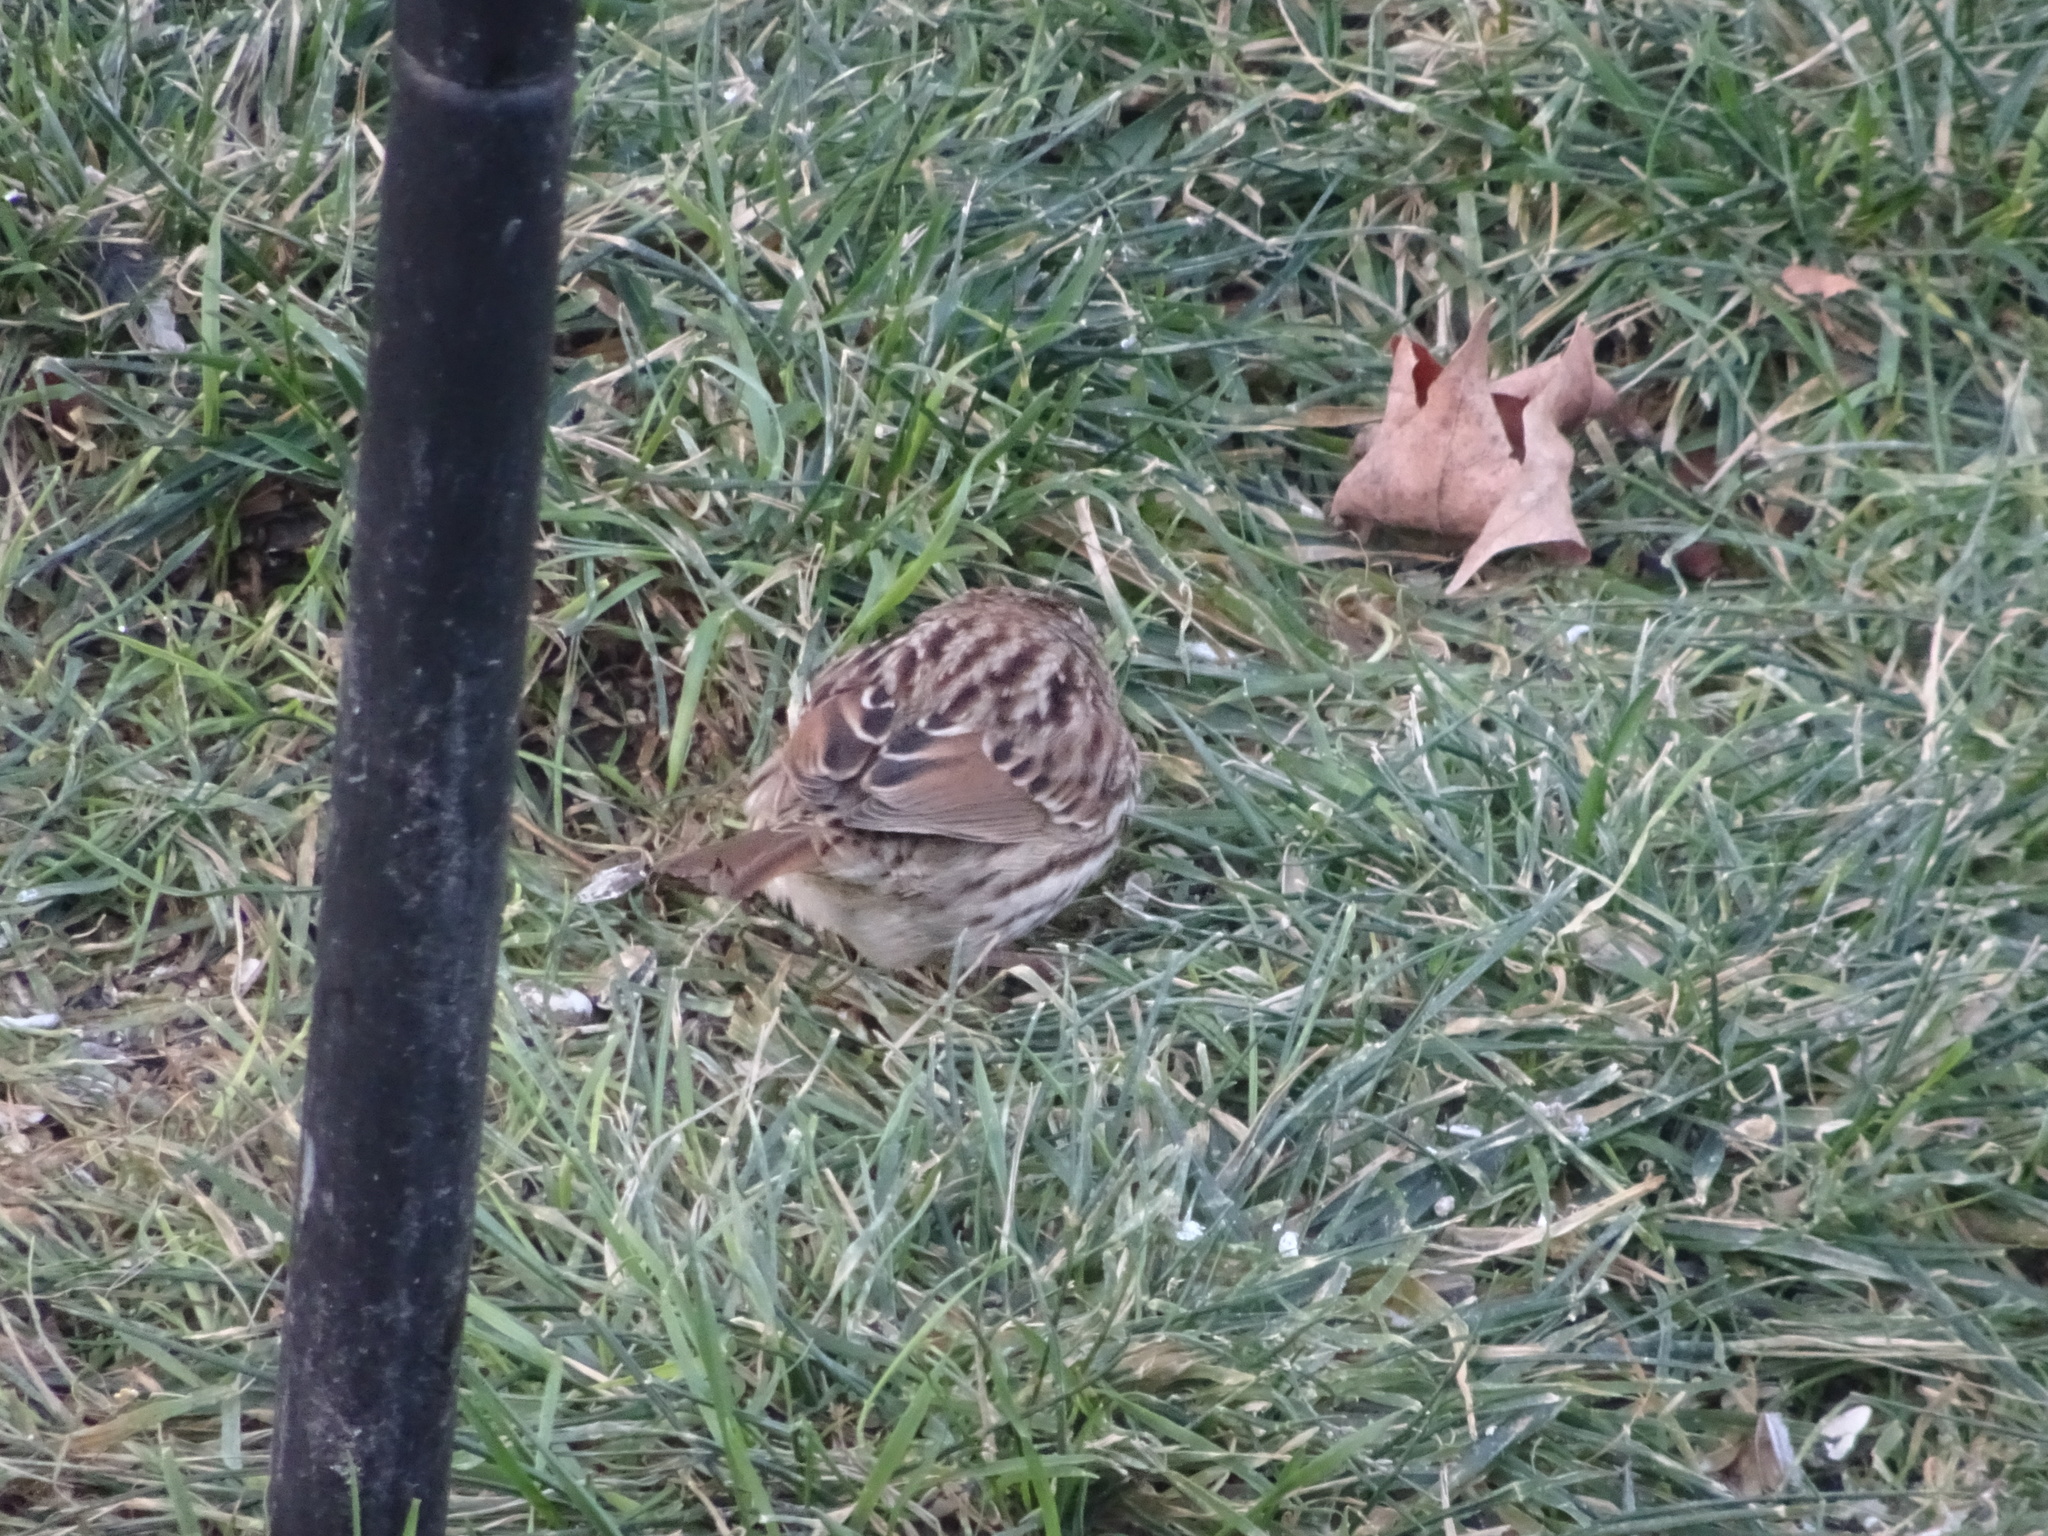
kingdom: Animalia
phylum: Chordata
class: Aves
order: Passeriformes
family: Passerellidae
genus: Melospiza
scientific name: Melospiza melodia
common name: Song sparrow
